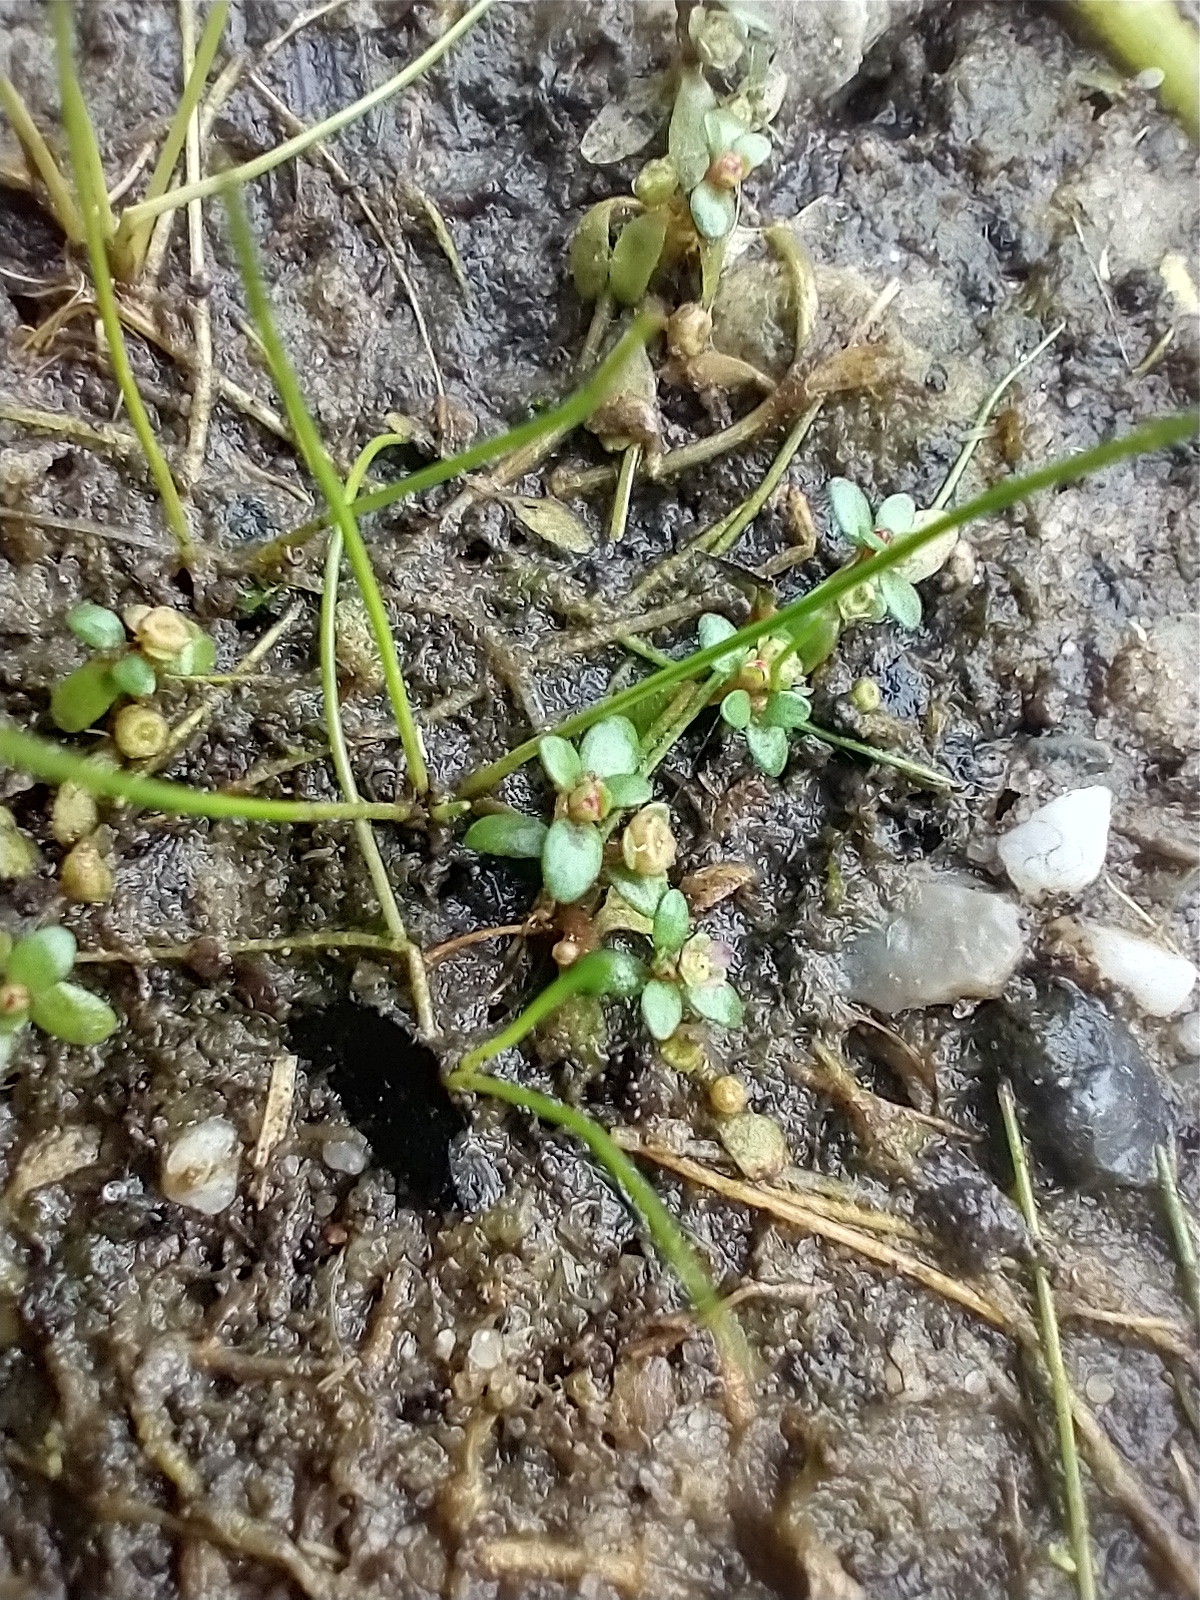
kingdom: Plantae
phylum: Tracheophyta
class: Magnoliopsida
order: Malpighiales
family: Elatinaceae
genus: Elatine
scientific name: Elatine hexandra
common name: Six-stamened waterwort
